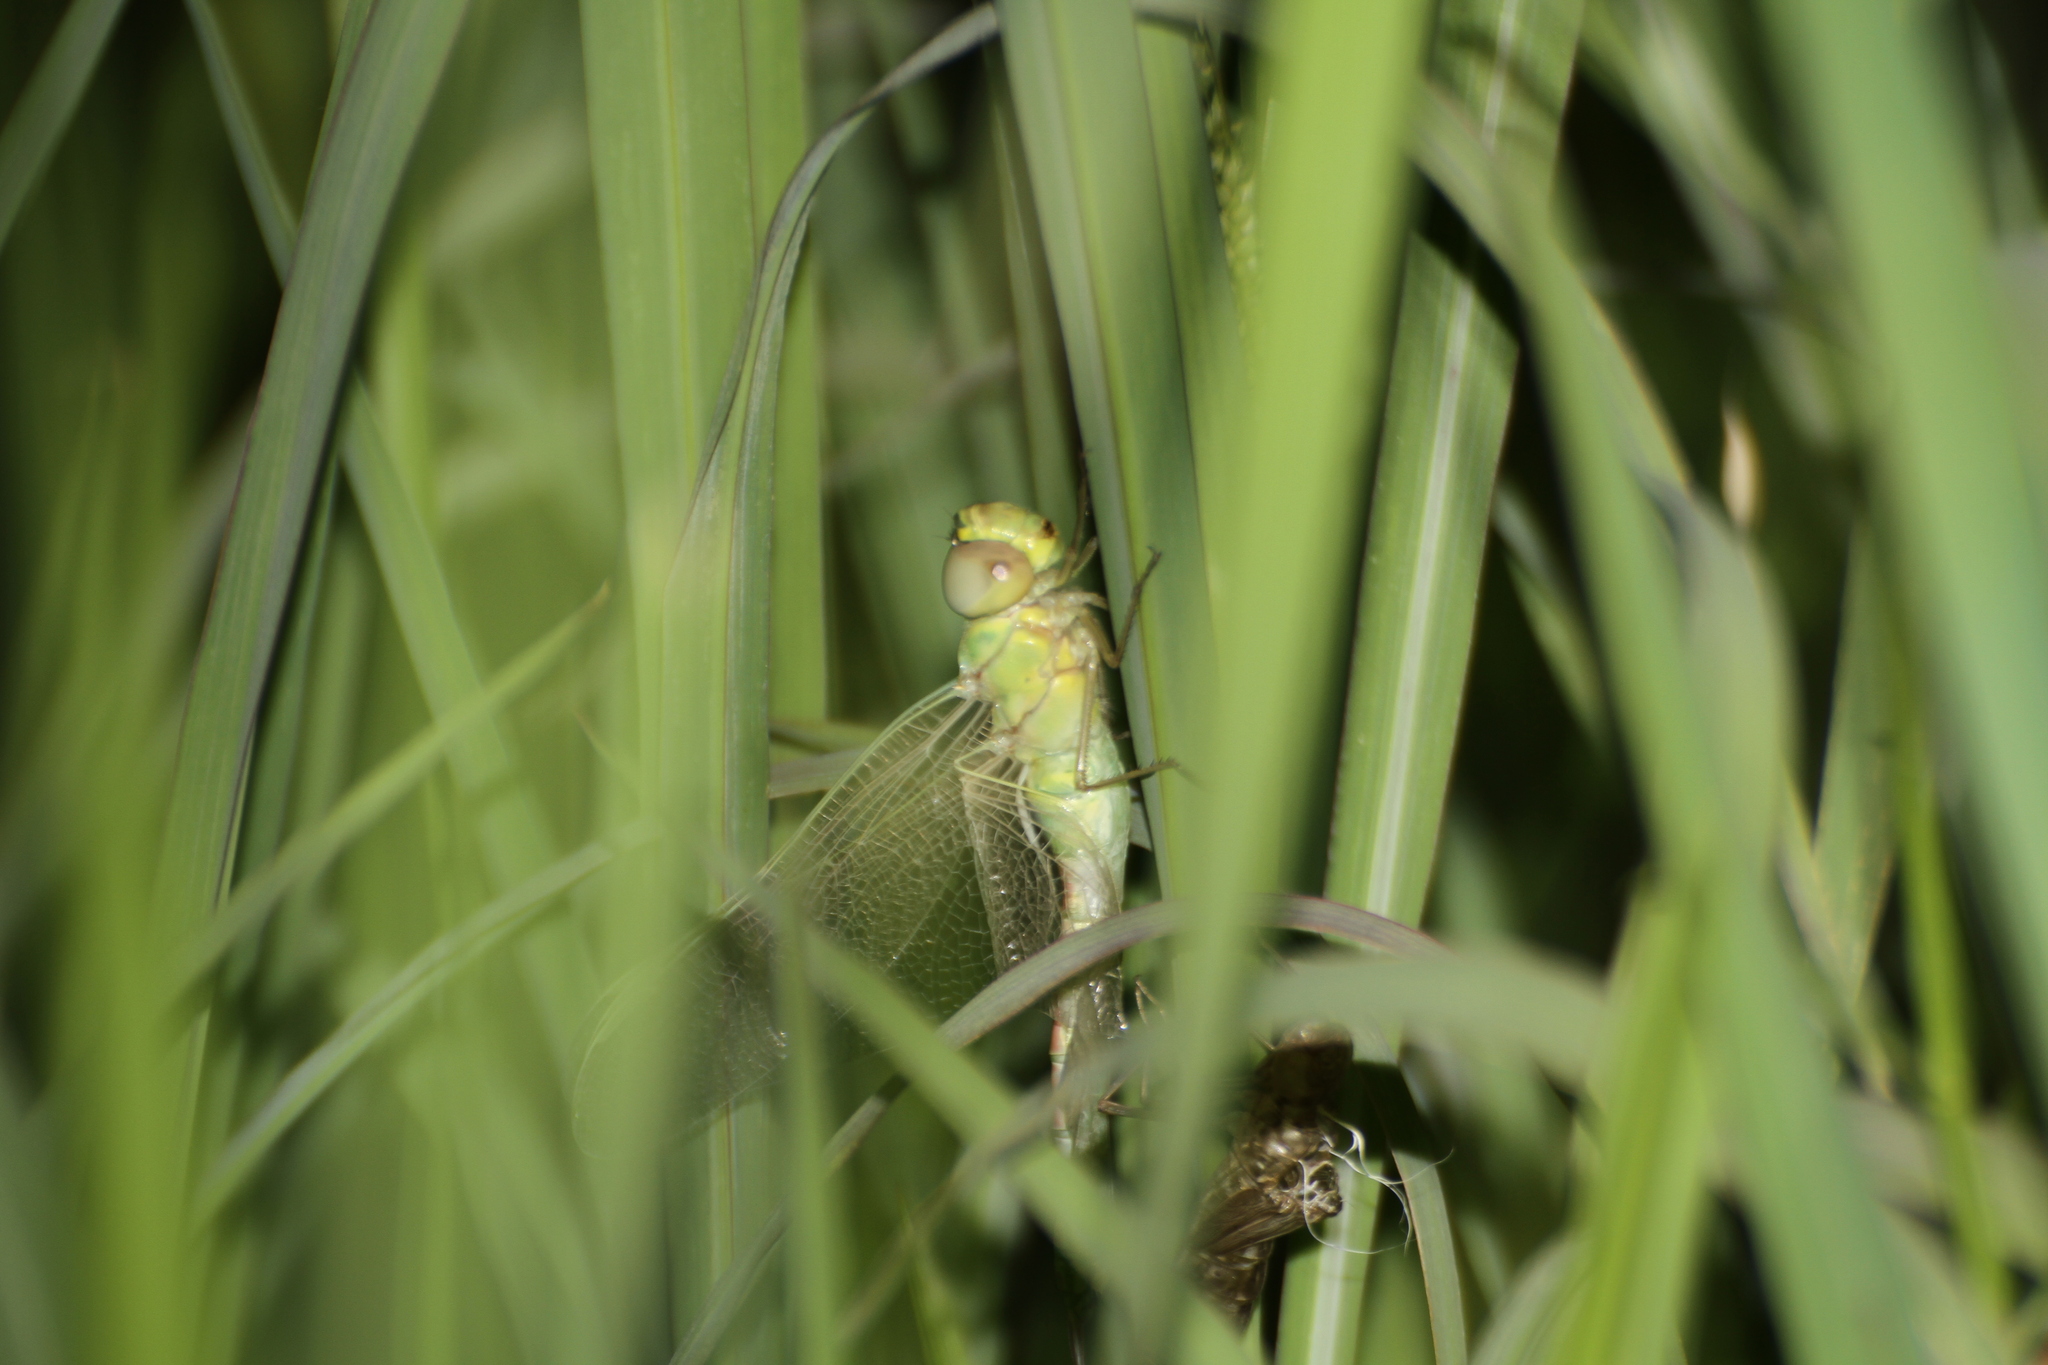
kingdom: Animalia
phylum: Arthropoda
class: Insecta
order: Odonata
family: Aeshnidae
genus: Anax
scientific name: Anax imperator
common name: Emperor dragonfly
